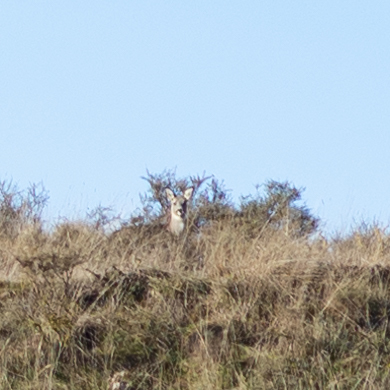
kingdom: Animalia
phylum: Chordata
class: Mammalia
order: Artiodactyla
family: Cervidae
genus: Capreolus
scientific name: Capreolus capreolus
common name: Western roe deer
